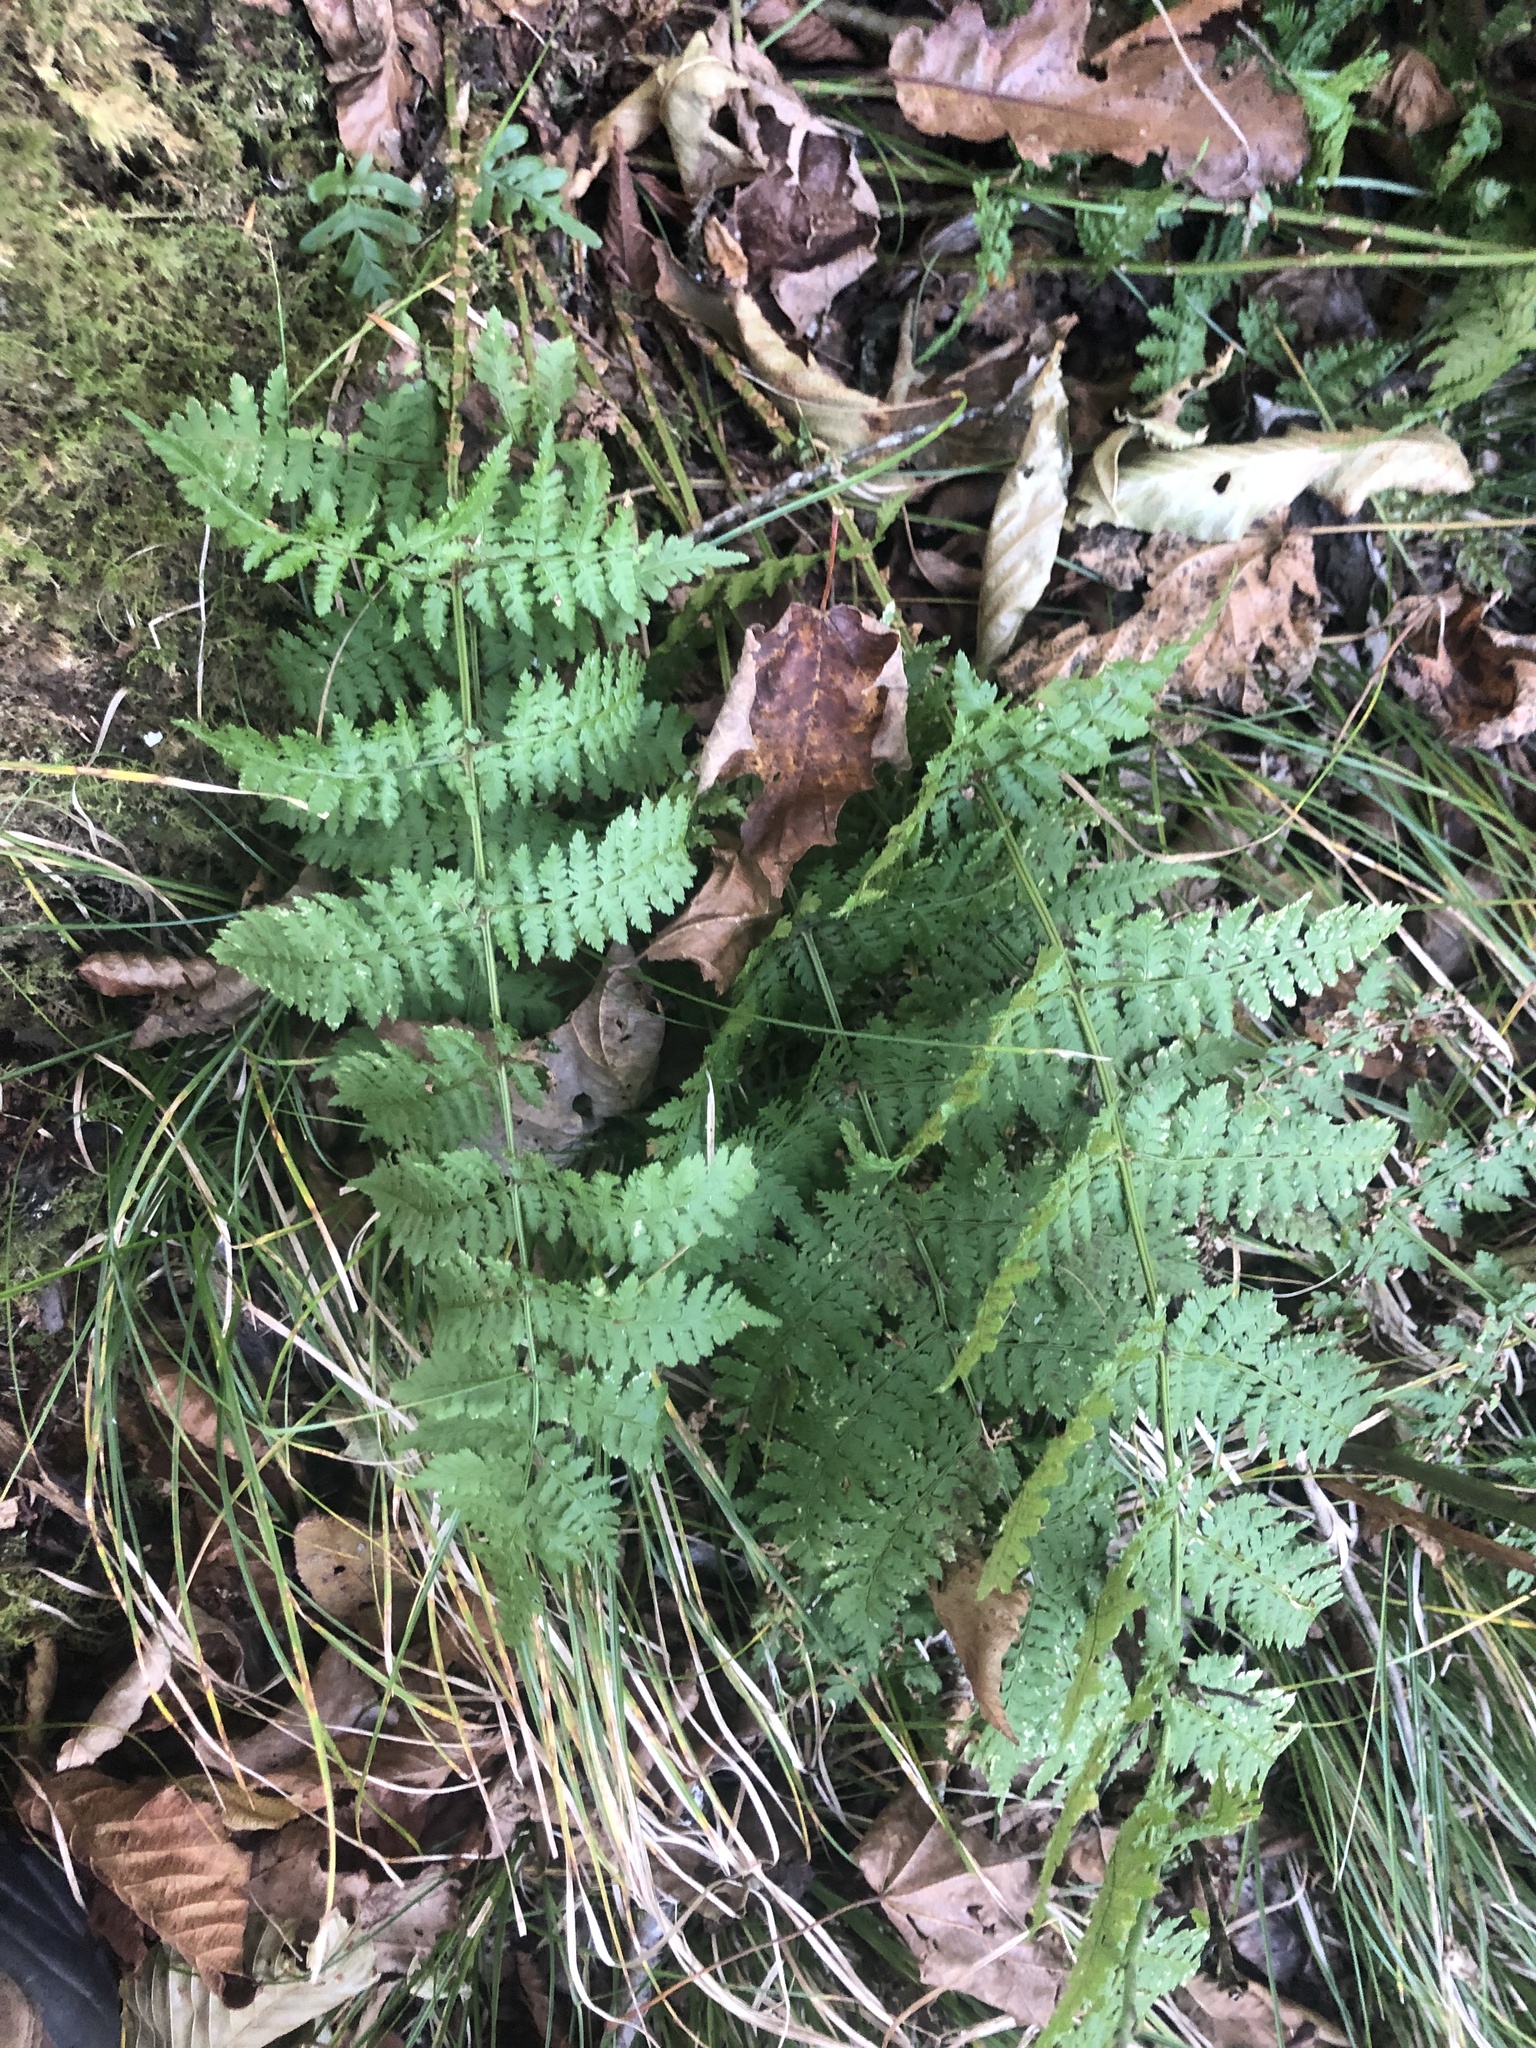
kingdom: Plantae
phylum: Tracheophyta
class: Polypodiopsida
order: Polypodiales
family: Dryopteridaceae
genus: Dryopteris
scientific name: Dryopteris intermedia
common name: Evergreen wood fern
